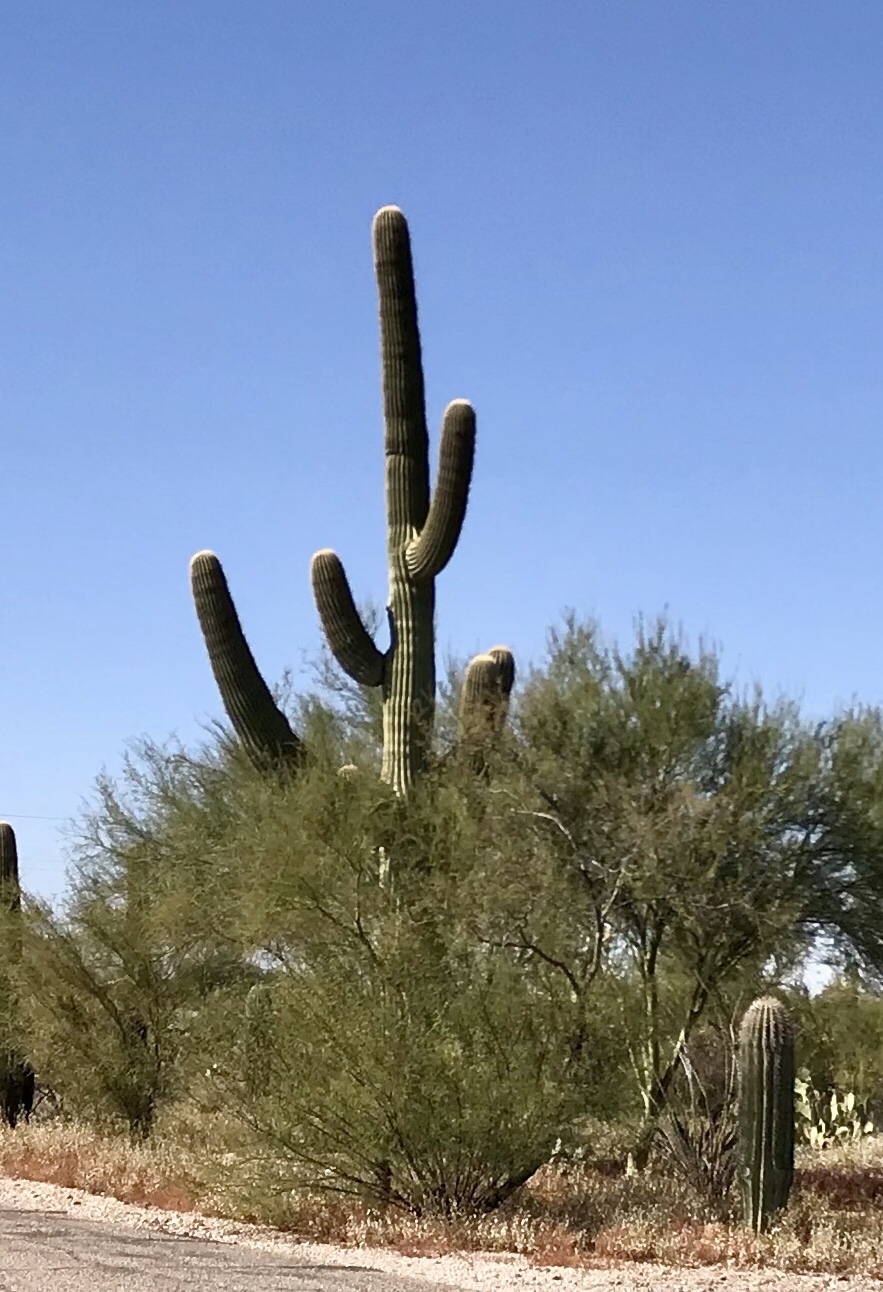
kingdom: Plantae
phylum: Tracheophyta
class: Magnoliopsida
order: Caryophyllales
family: Cactaceae
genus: Carnegiea
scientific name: Carnegiea gigantea
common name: Saguaro
